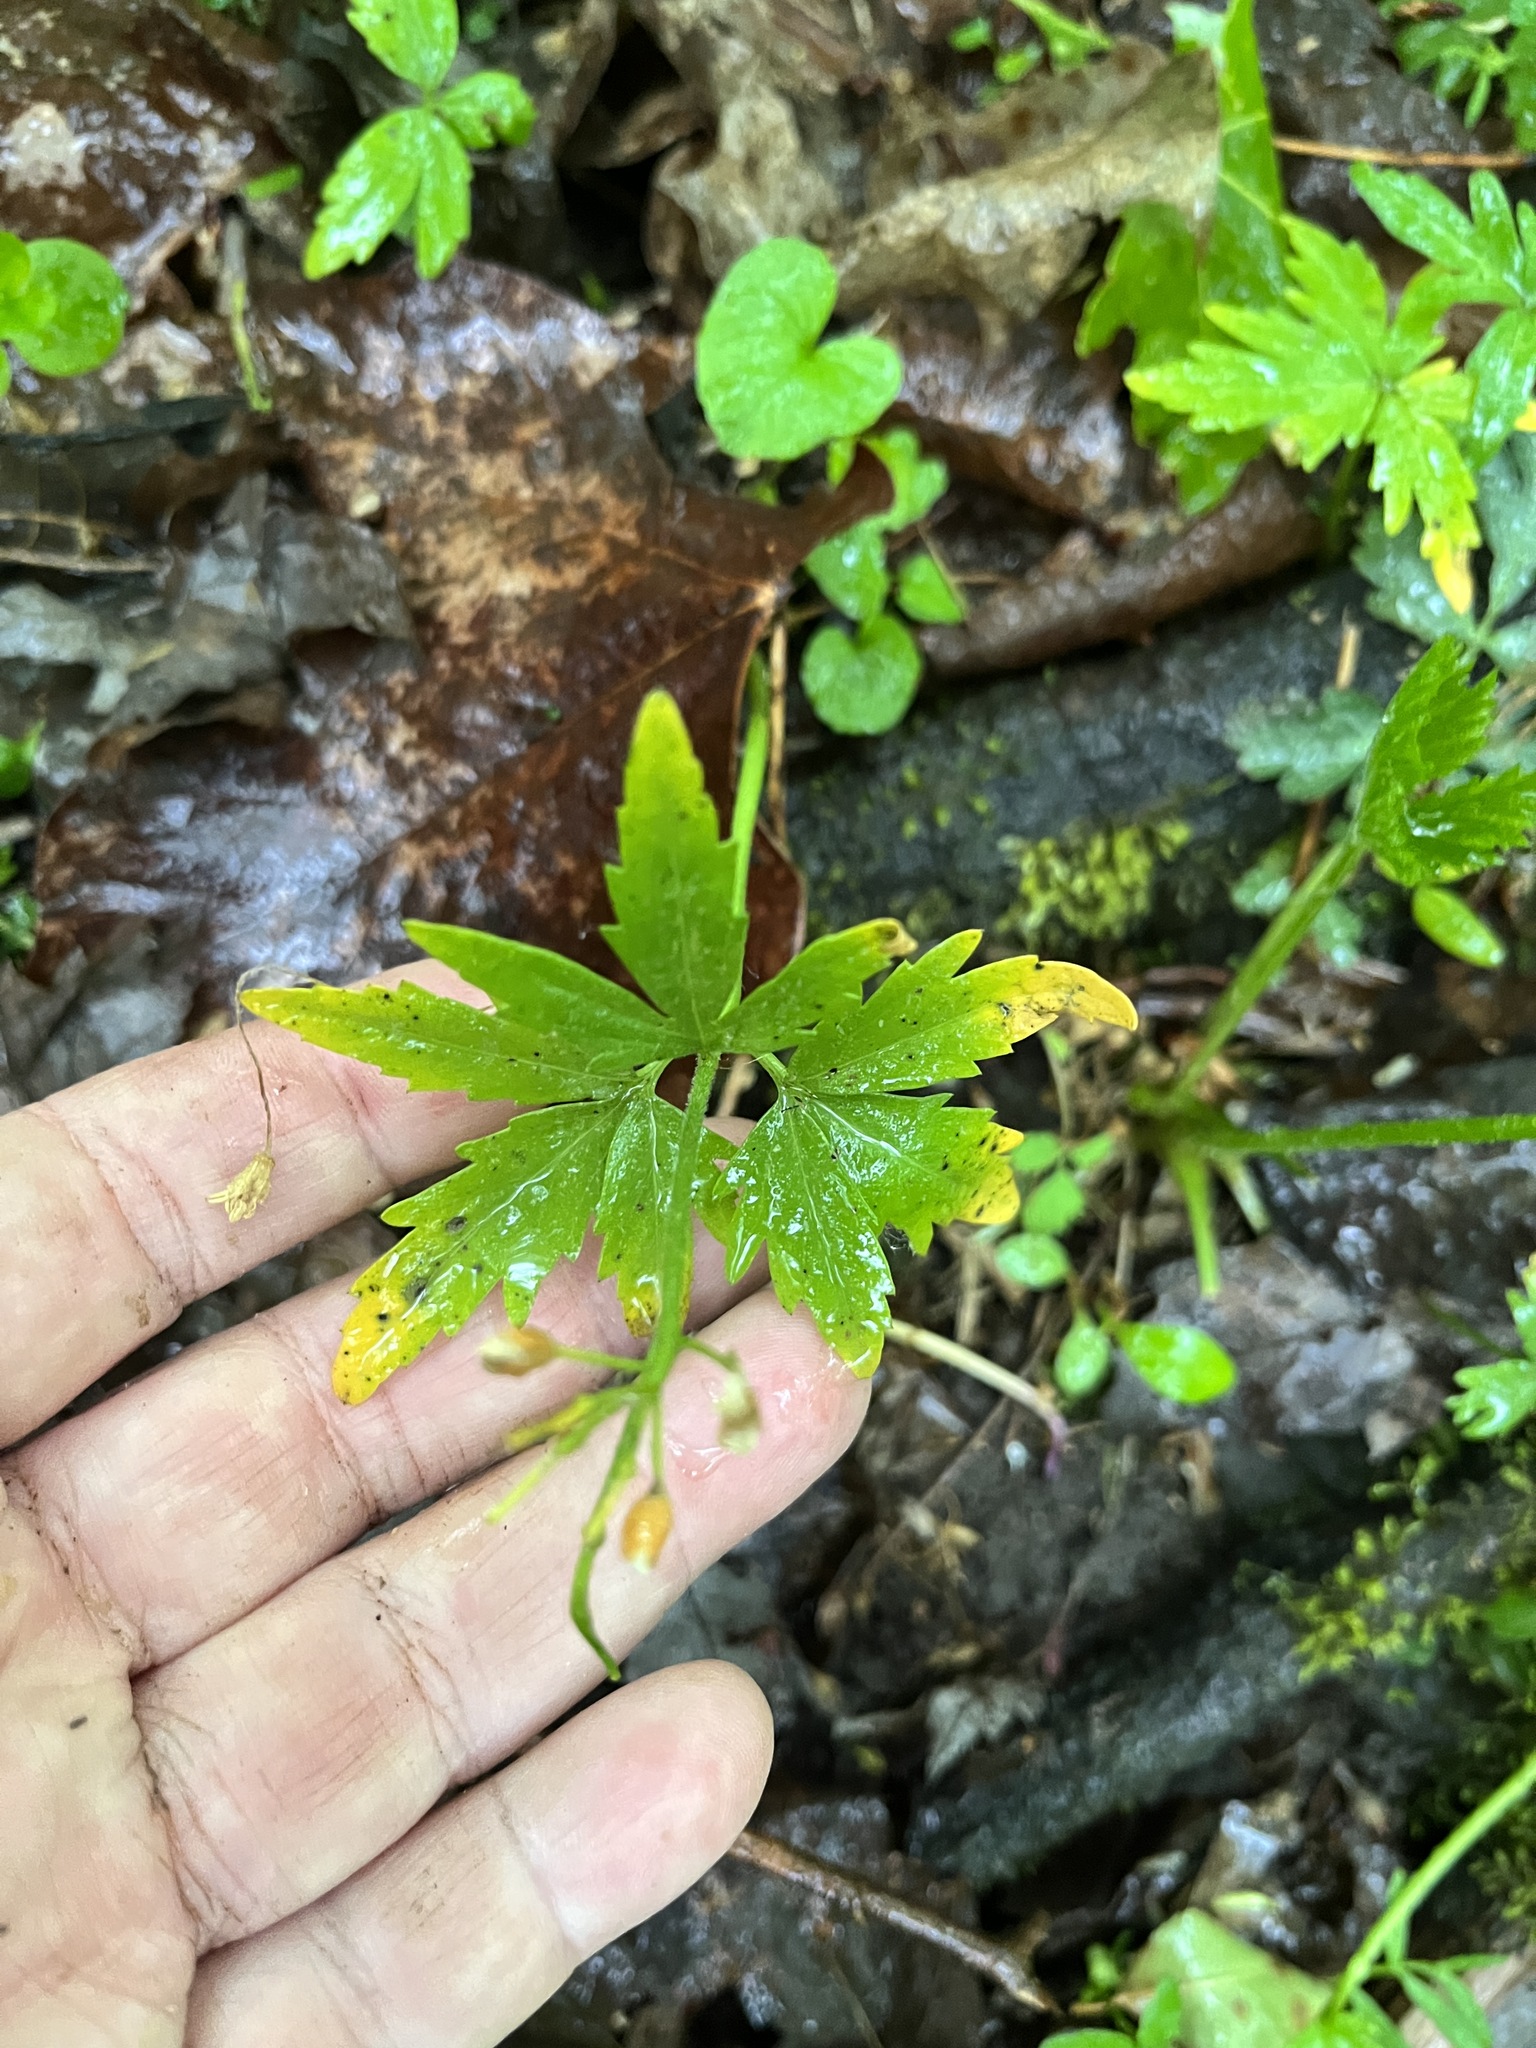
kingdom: Plantae
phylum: Tracheophyta
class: Magnoliopsida
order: Brassicales
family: Brassicaceae
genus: Cardamine
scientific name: Cardamine concatenata
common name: Cut-leaf toothcup
